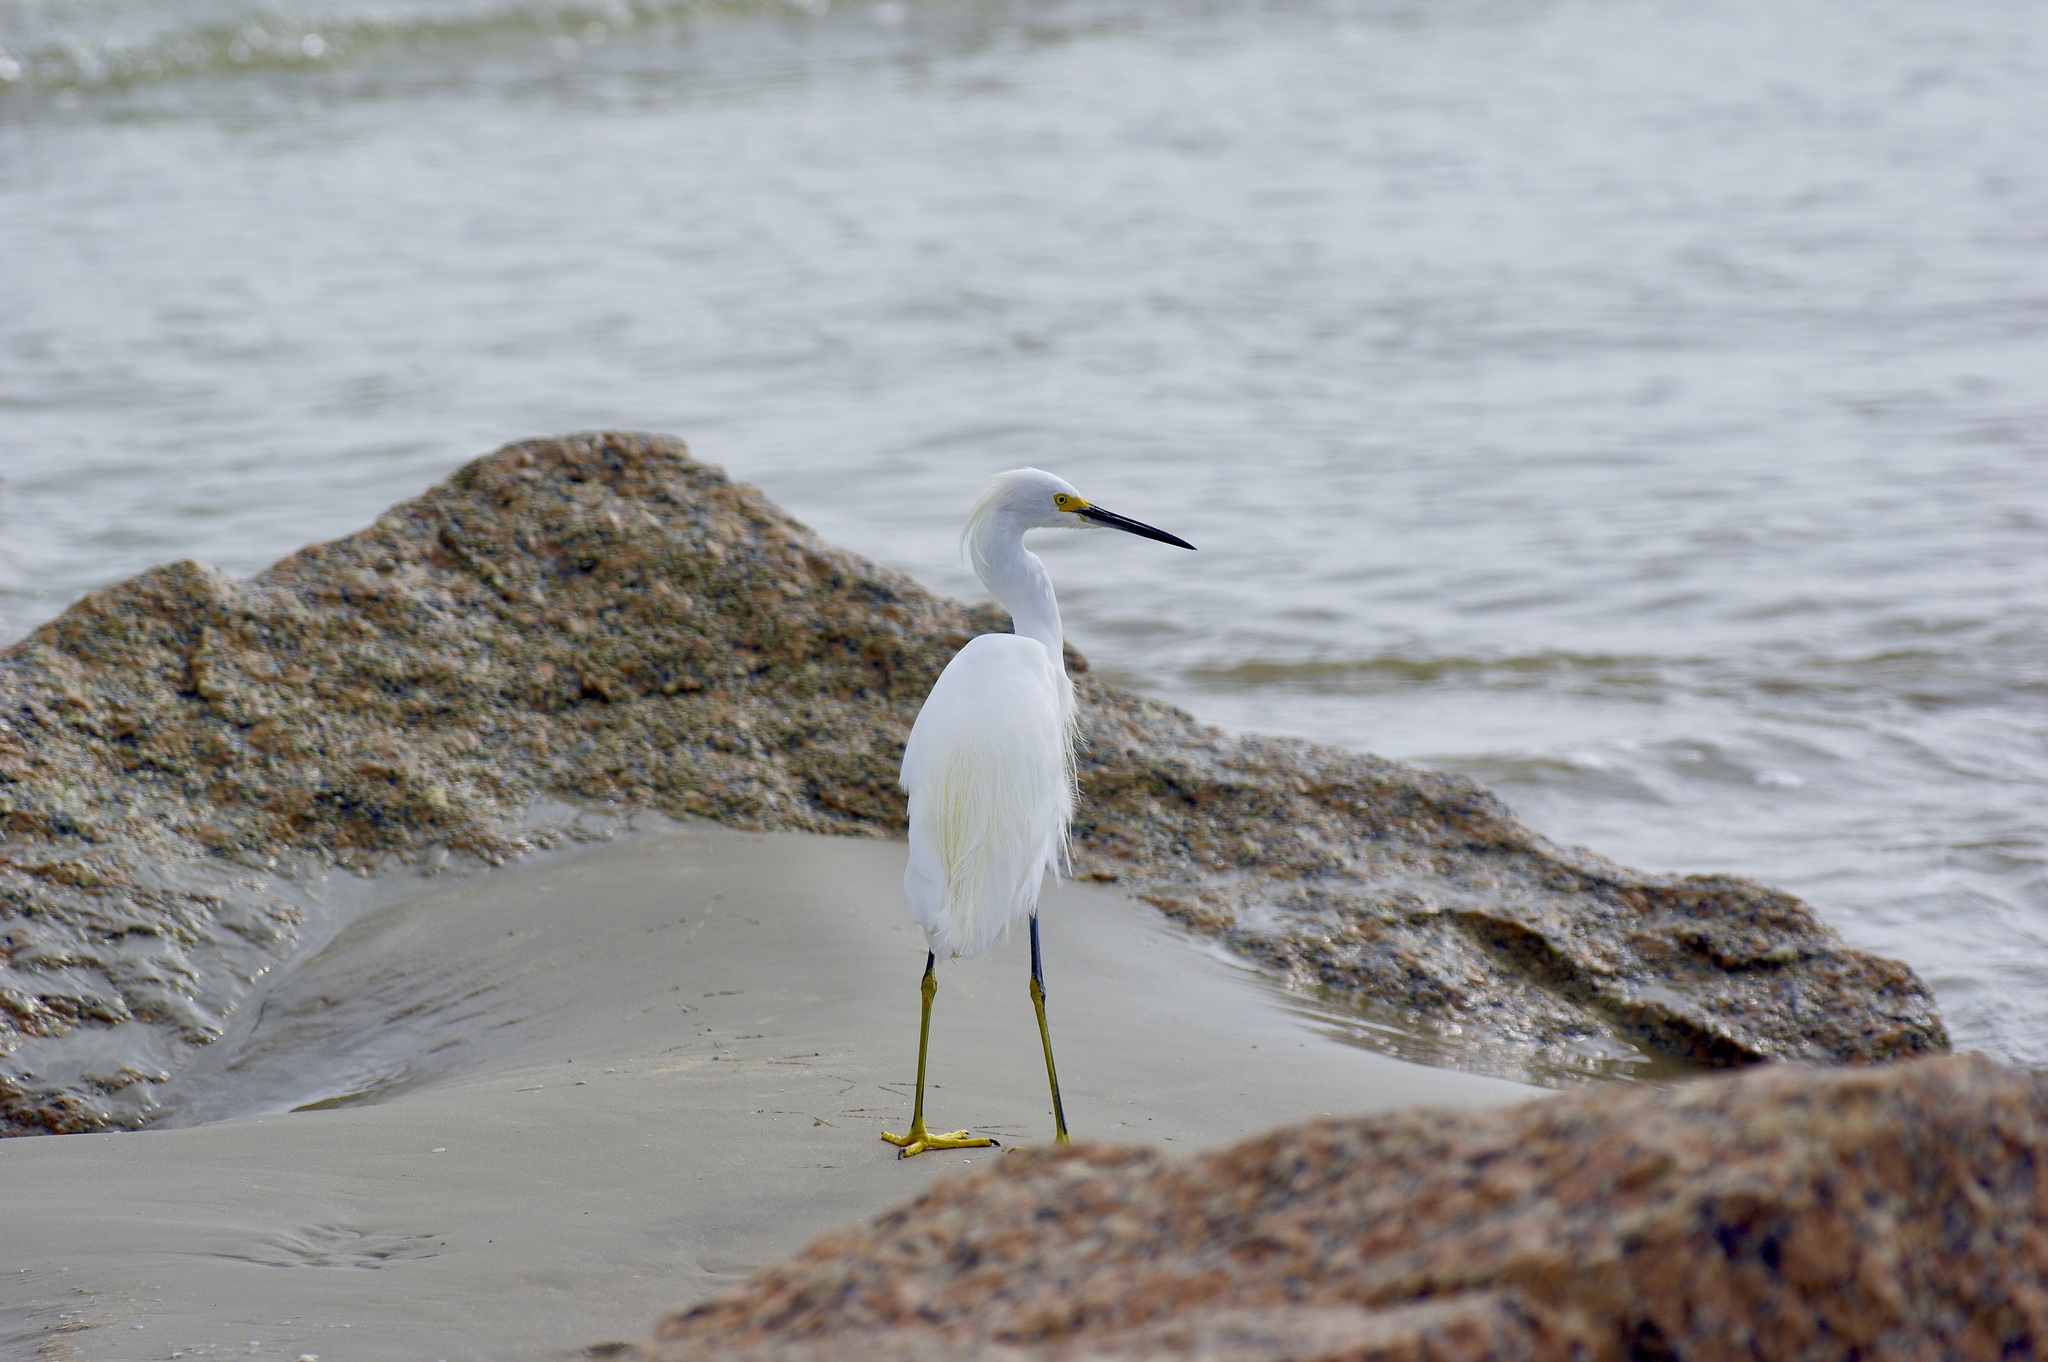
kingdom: Animalia
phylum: Chordata
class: Aves
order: Pelecaniformes
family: Ardeidae
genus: Egretta
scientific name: Egretta thula
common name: Snowy egret
